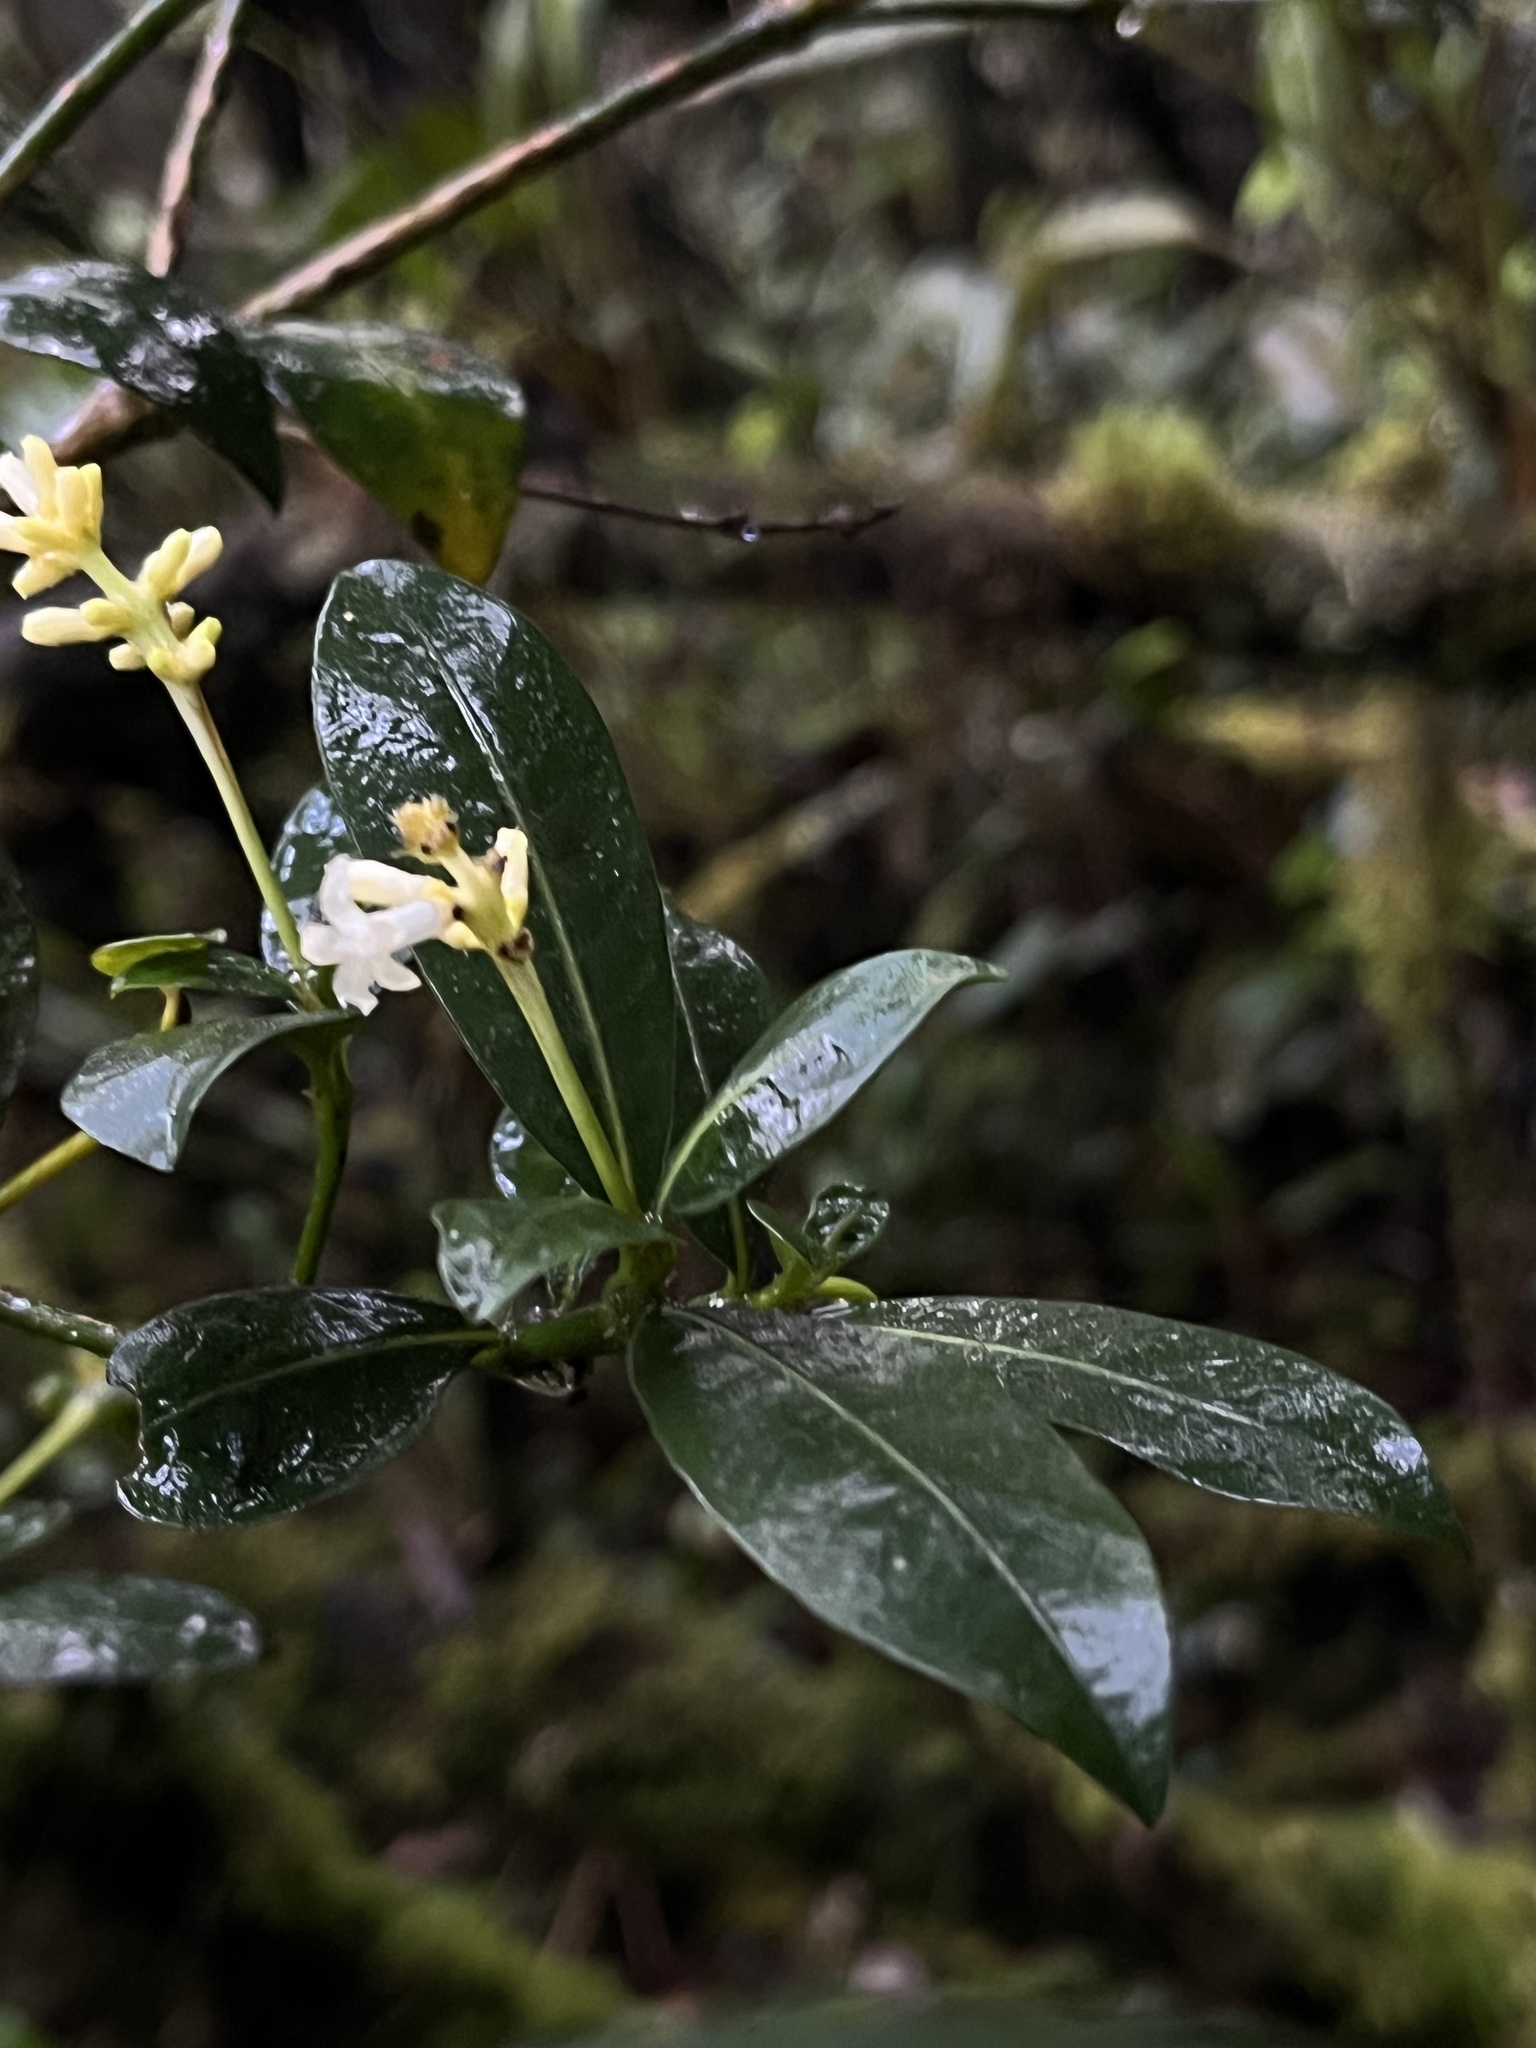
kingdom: Plantae
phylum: Tracheophyta
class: Magnoliopsida
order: Gentianales
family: Rubiaceae
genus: Palicourea
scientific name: Palicourea boqueronensis
